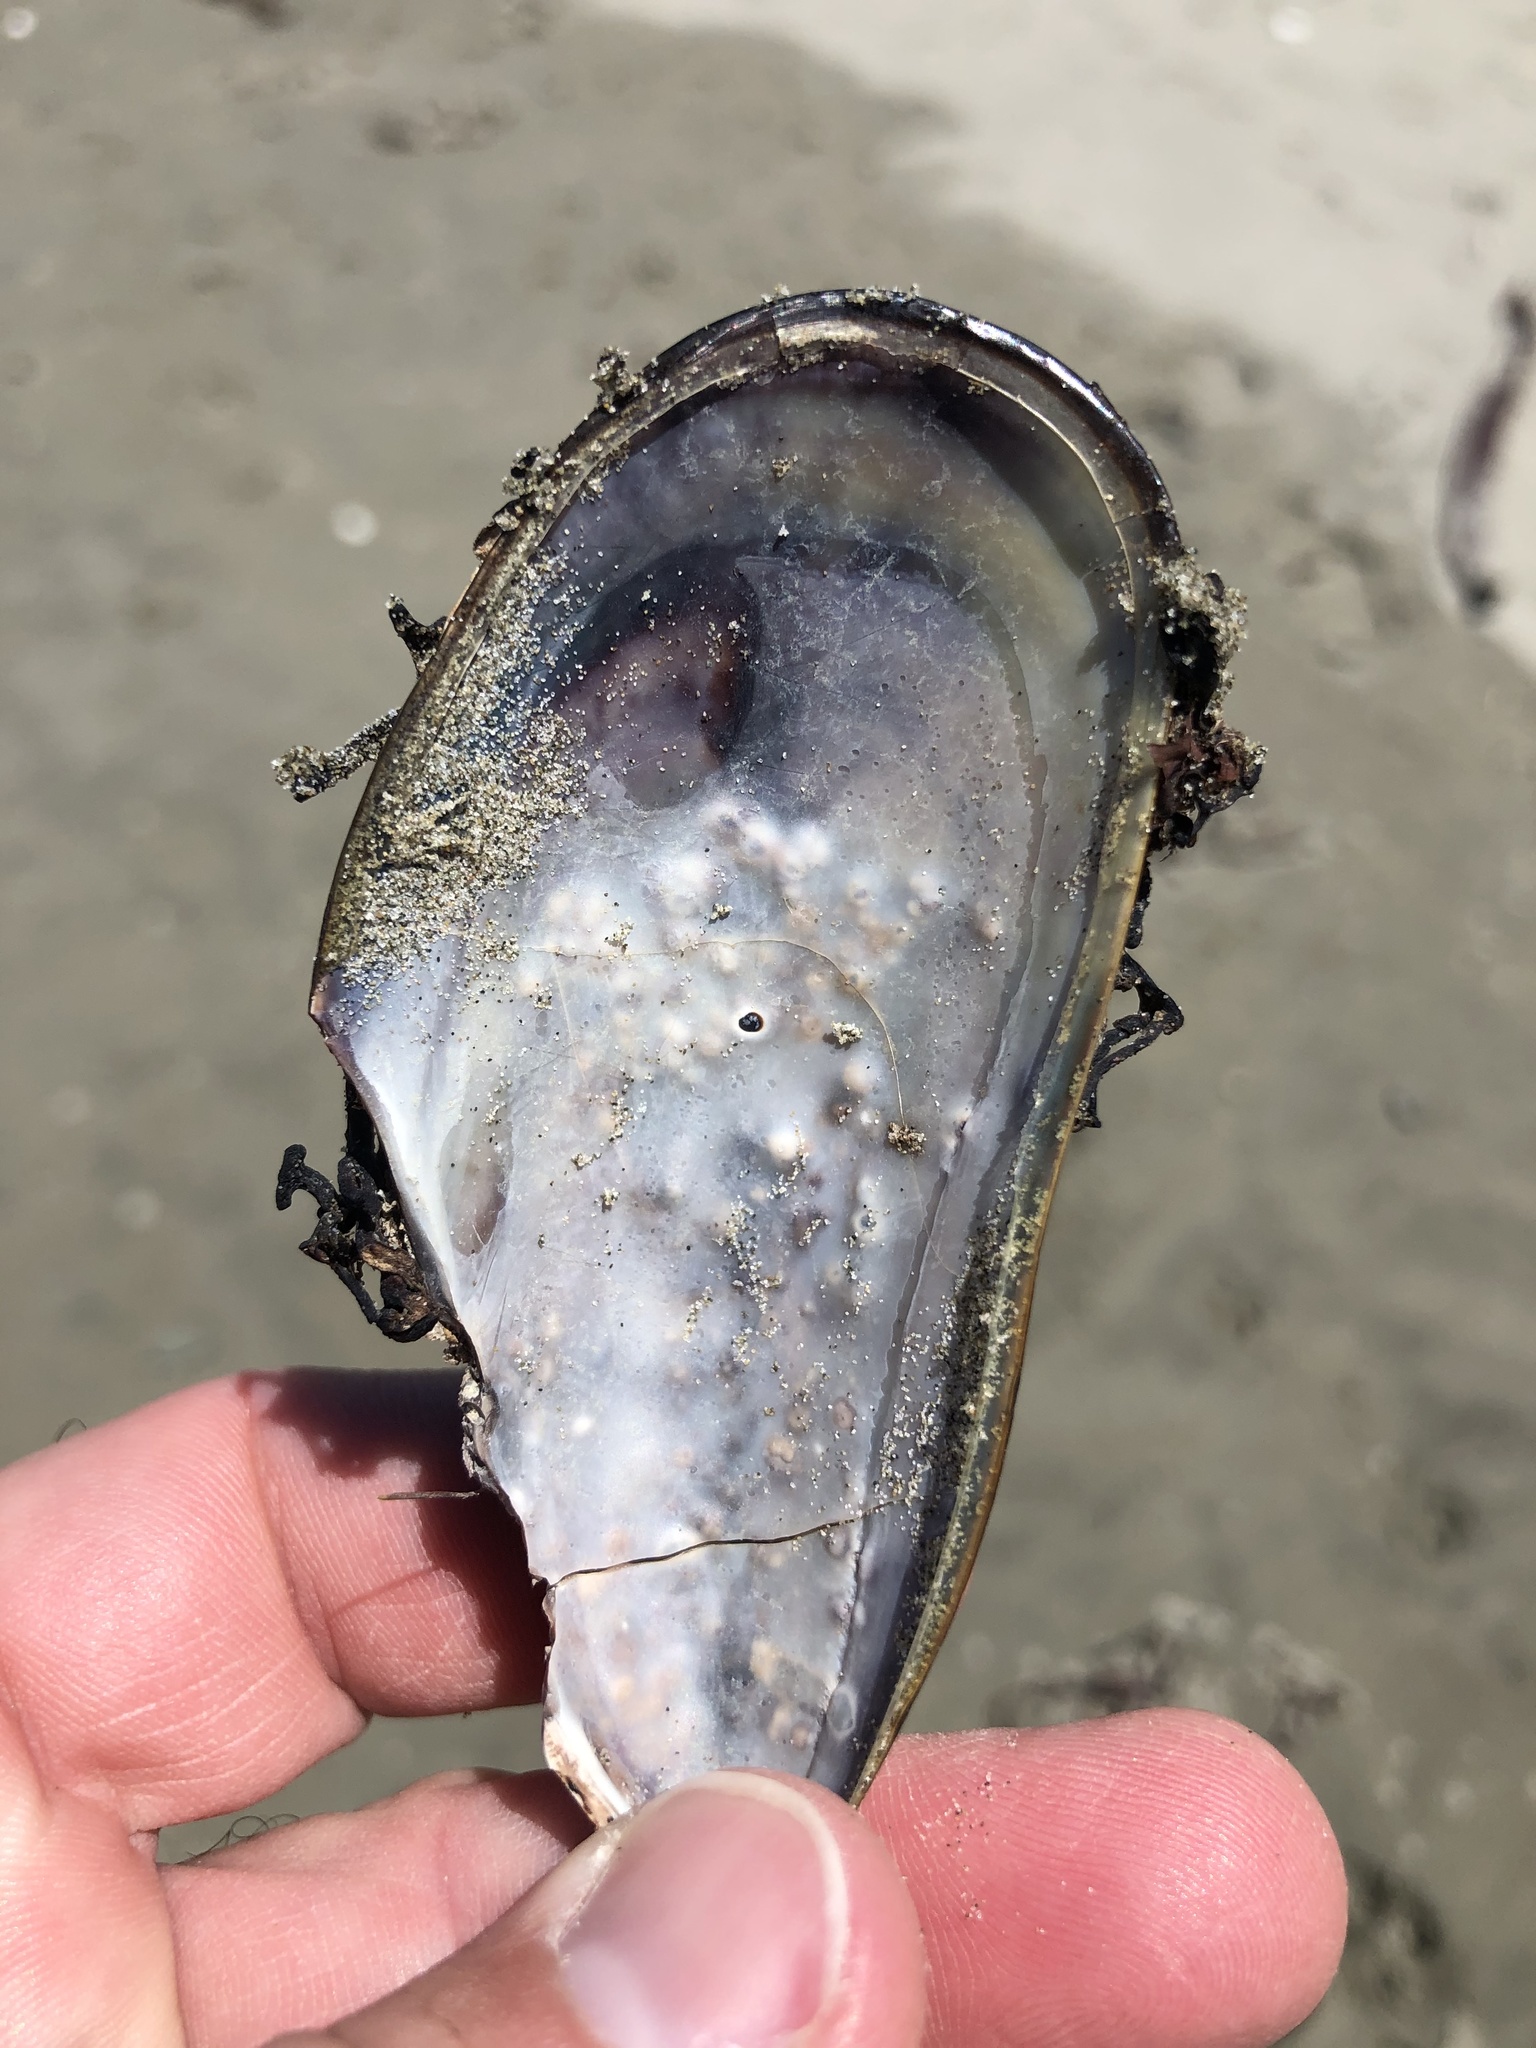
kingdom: Animalia
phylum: Mollusca
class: Bivalvia
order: Mytilida
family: Mytilidae
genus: Perna
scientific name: Perna canaliculus
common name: New zealand greenshelltm
